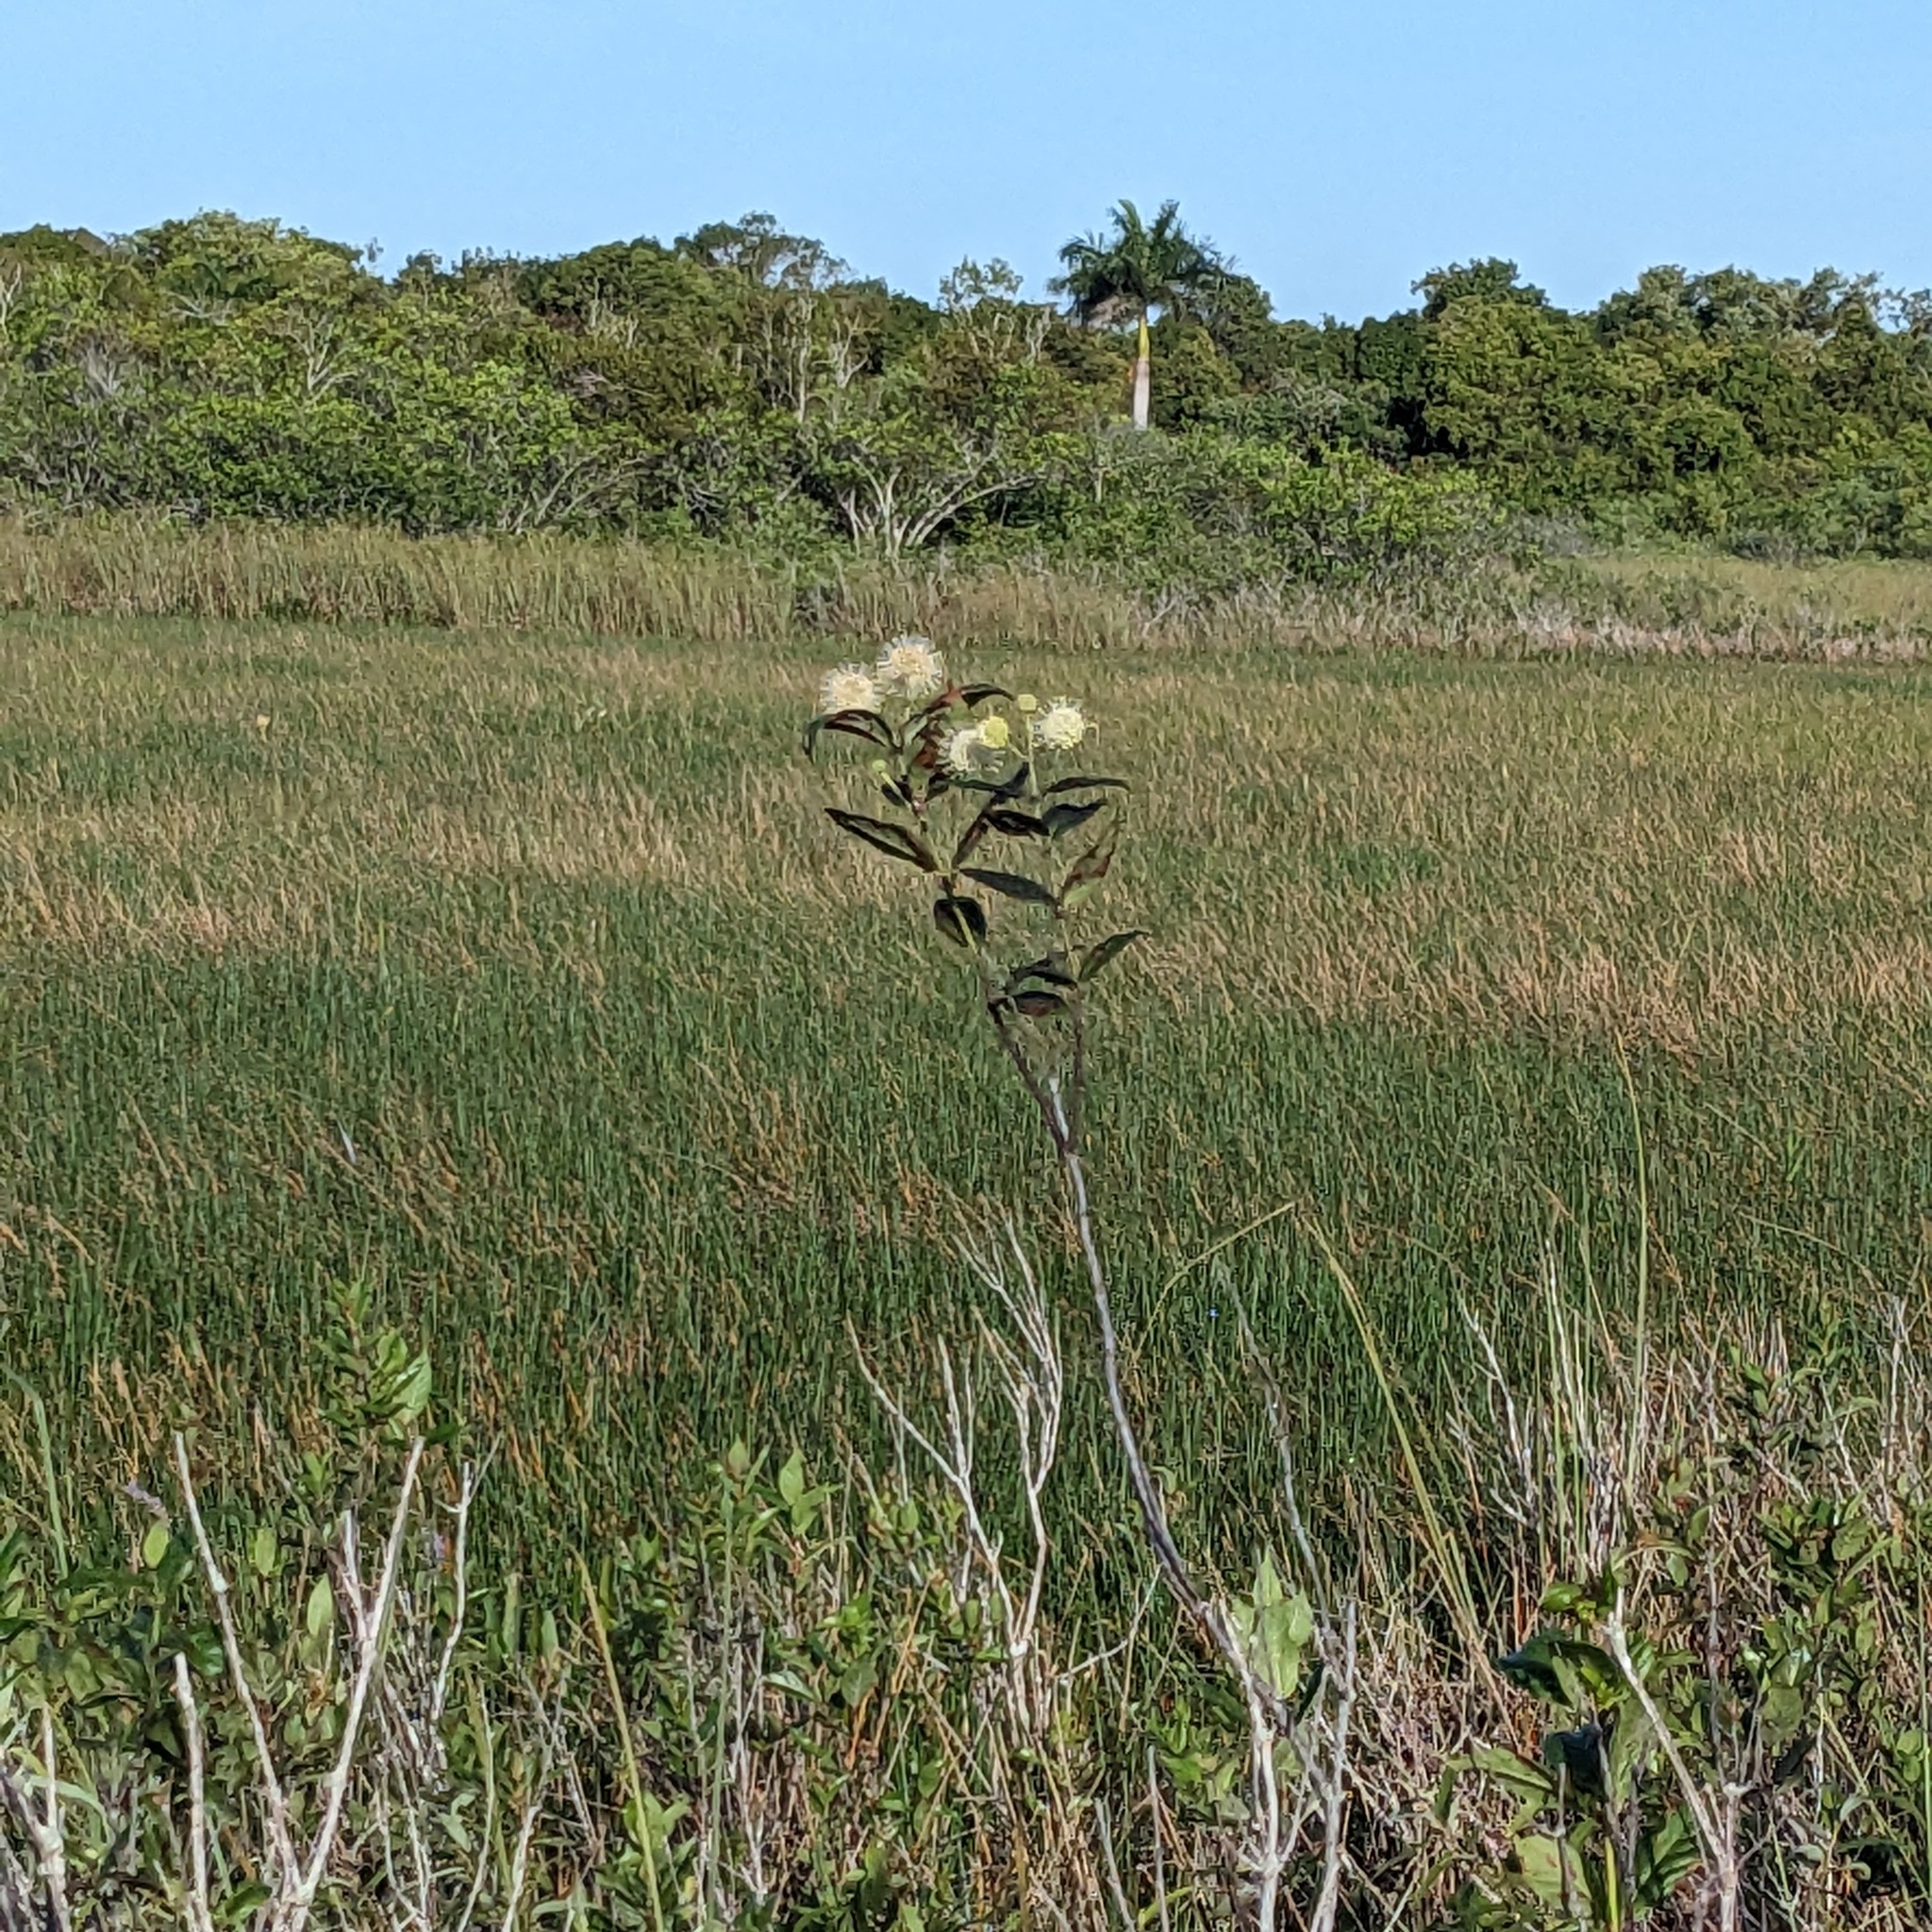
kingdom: Plantae
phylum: Tracheophyta
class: Magnoliopsida
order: Gentianales
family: Rubiaceae
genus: Cephalanthus
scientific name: Cephalanthus occidentalis
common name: Button-willow
